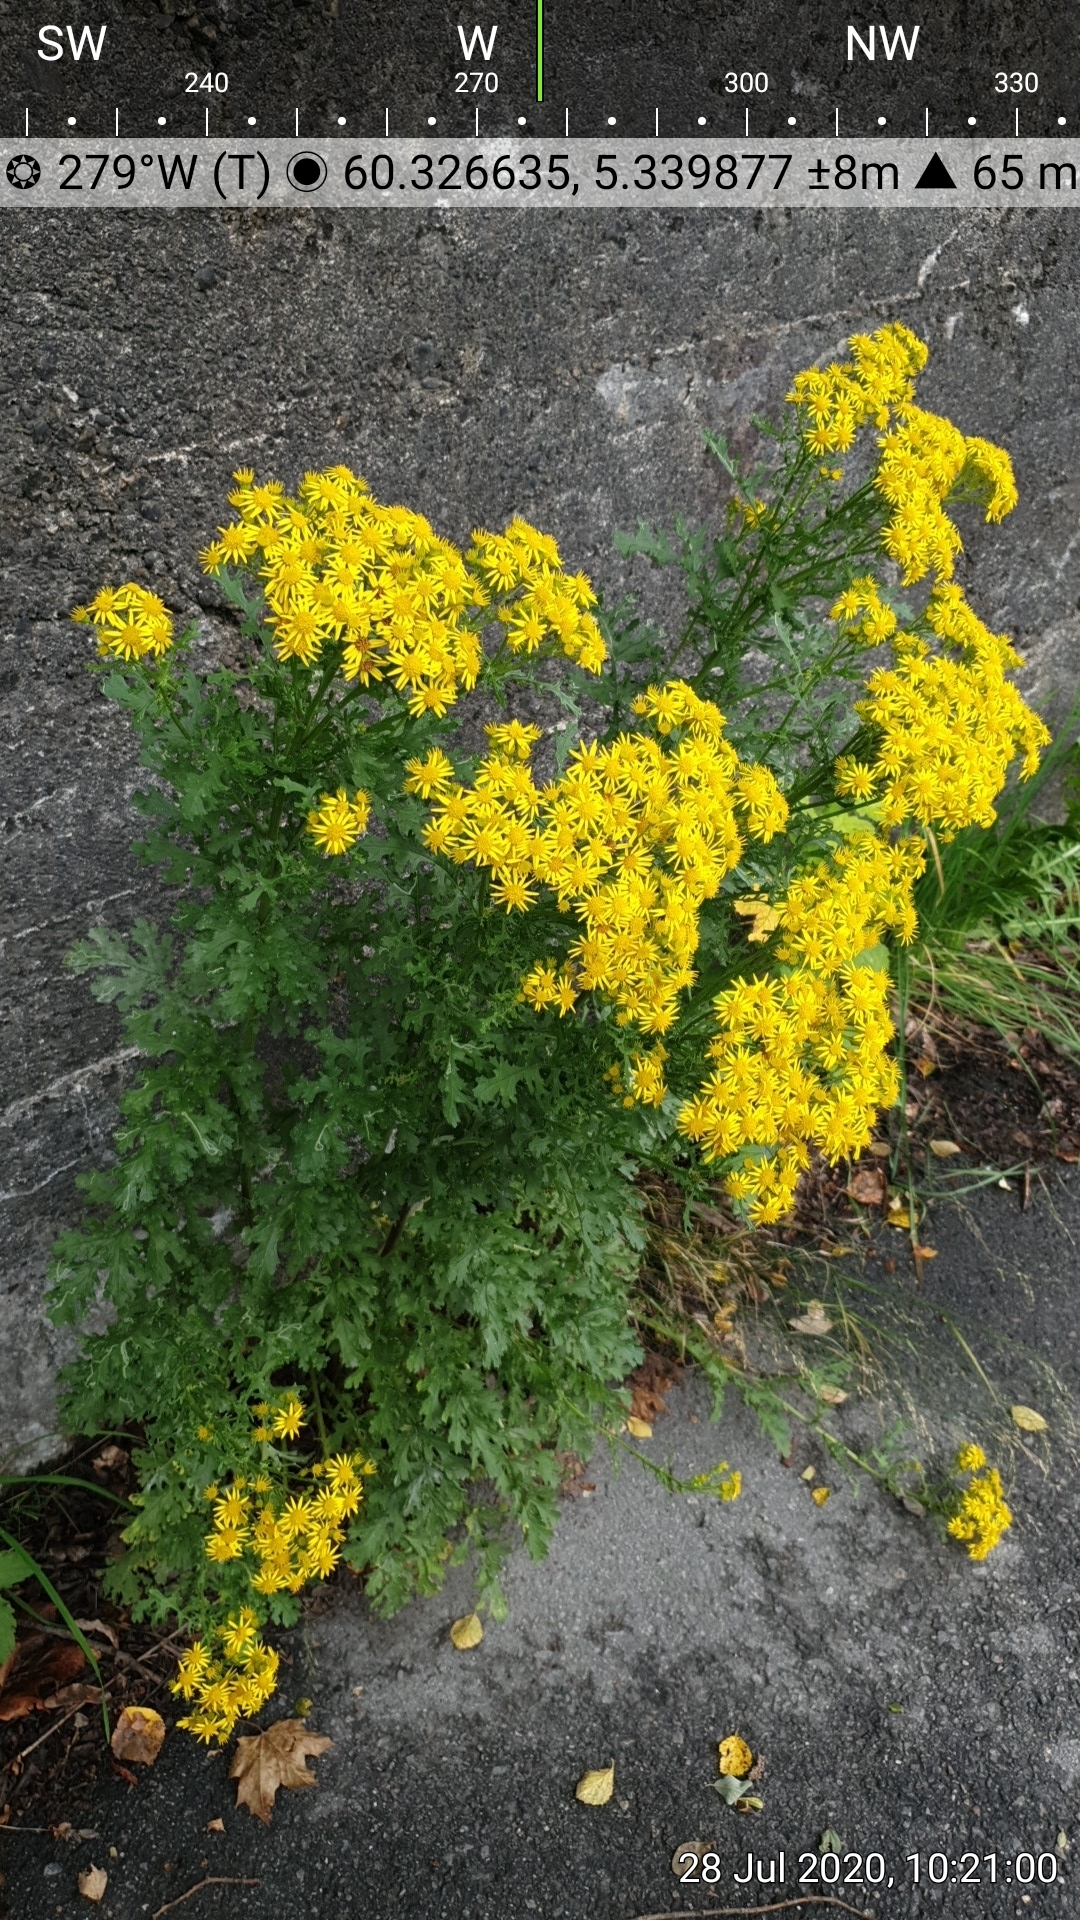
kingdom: Plantae
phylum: Tracheophyta
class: Magnoliopsida
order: Asterales
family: Asteraceae
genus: Jacobaea
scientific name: Jacobaea vulgaris
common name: Stinking willie
